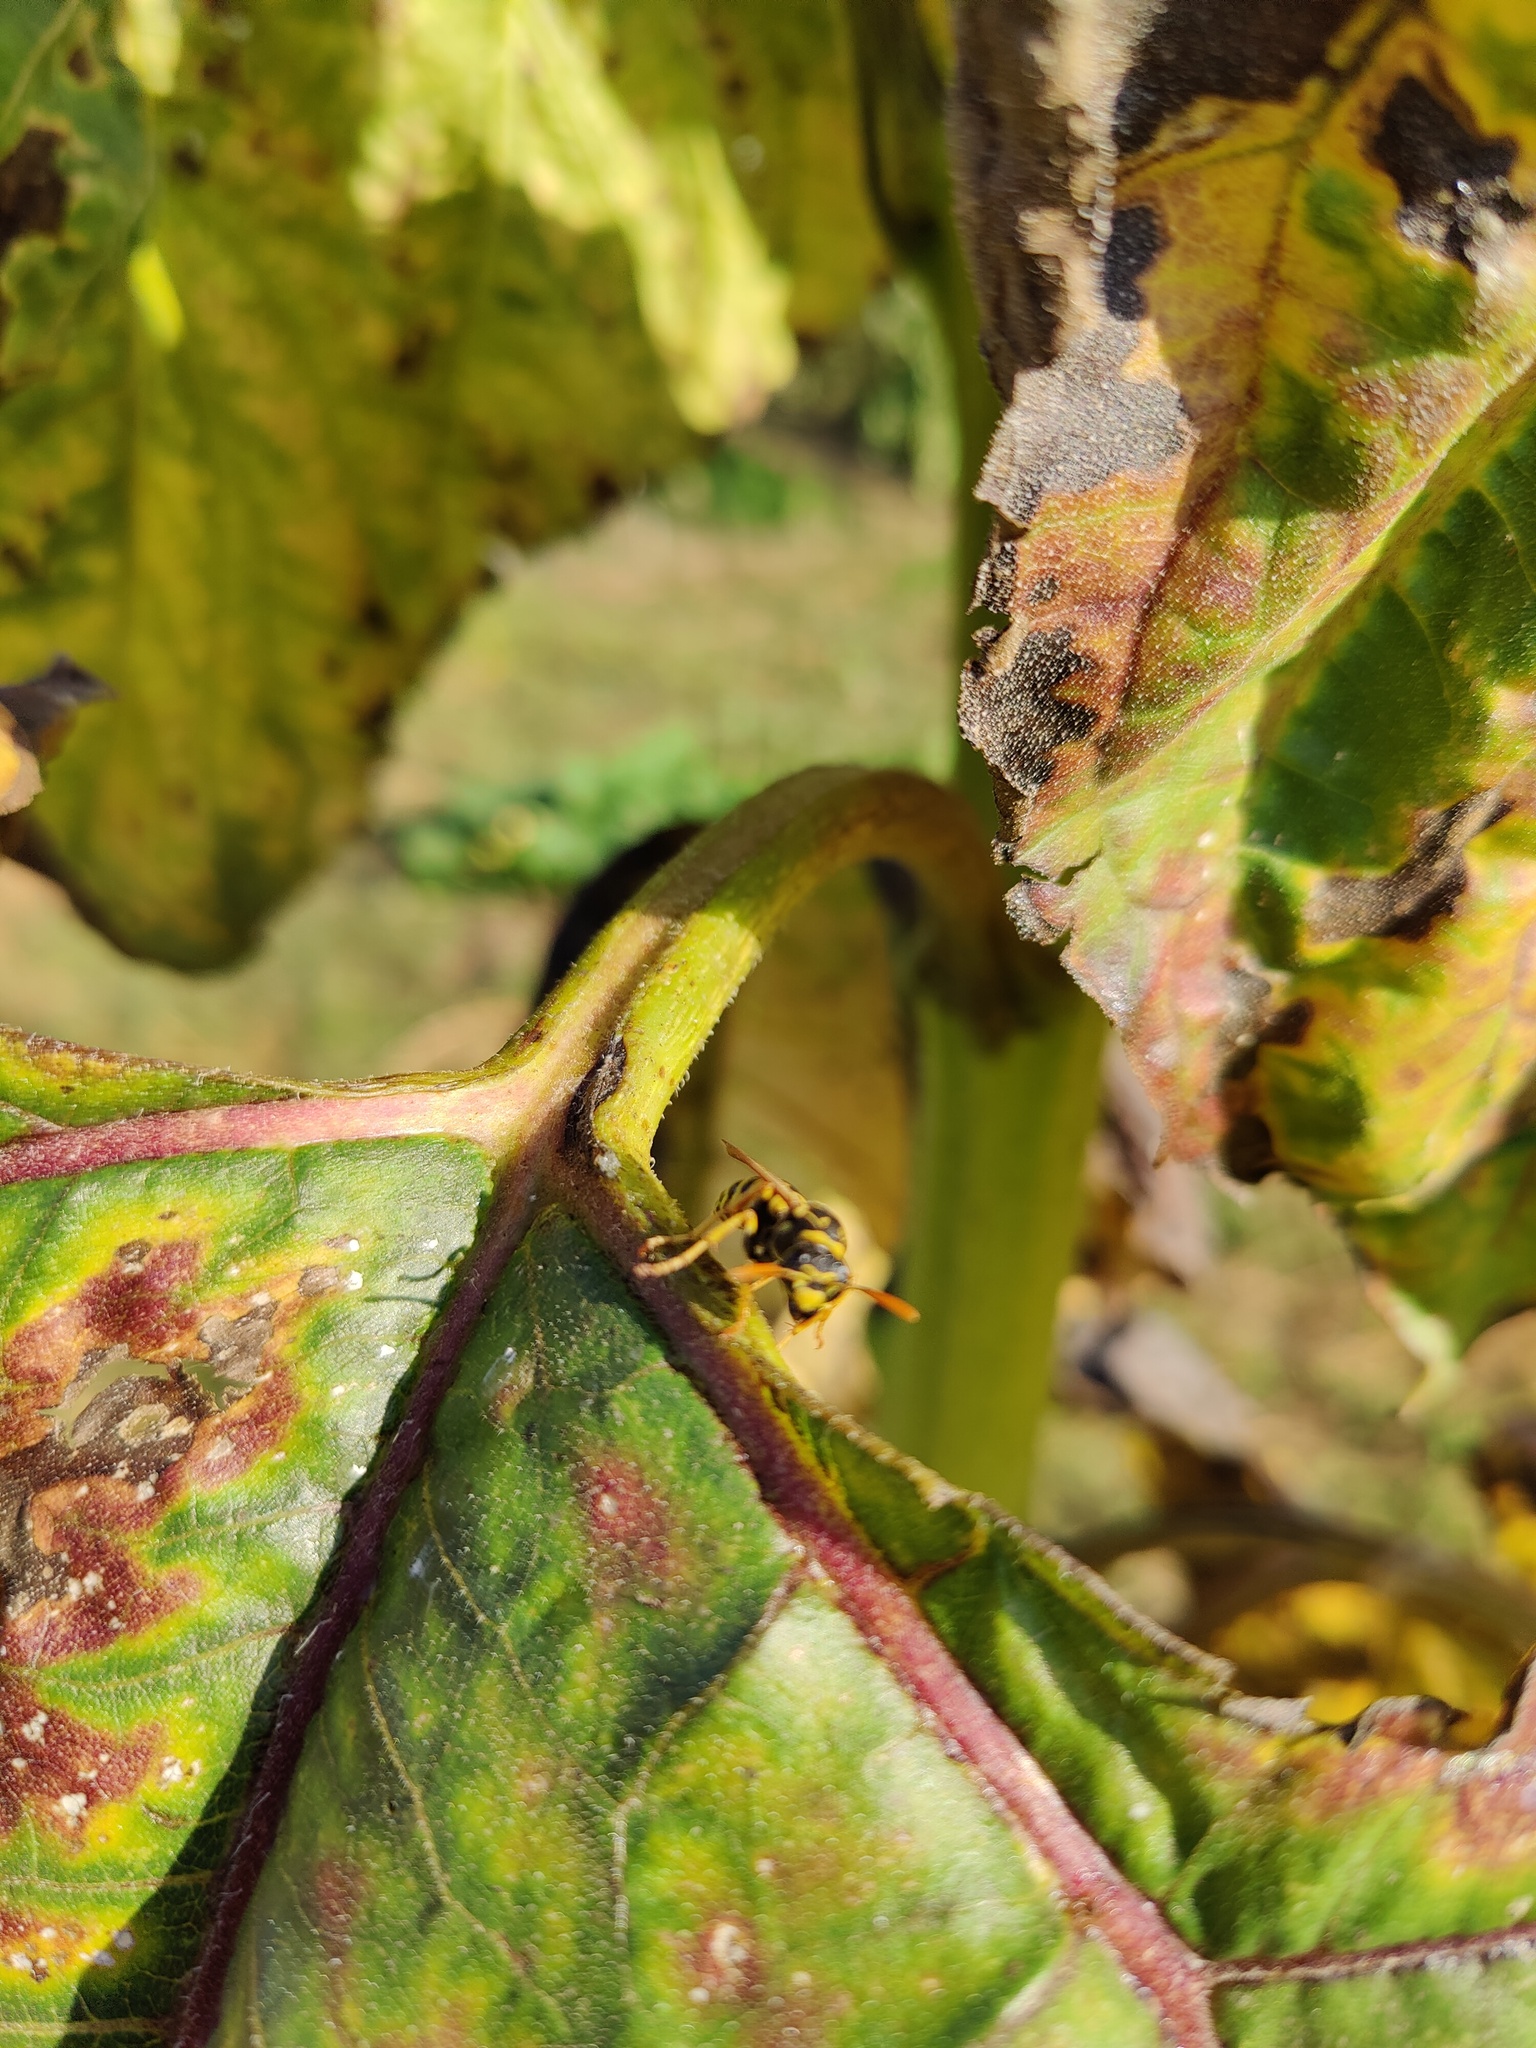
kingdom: Animalia
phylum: Arthropoda
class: Insecta
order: Hymenoptera
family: Eumenidae
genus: Polistes
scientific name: Polistes dominula
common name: Paper wasp
